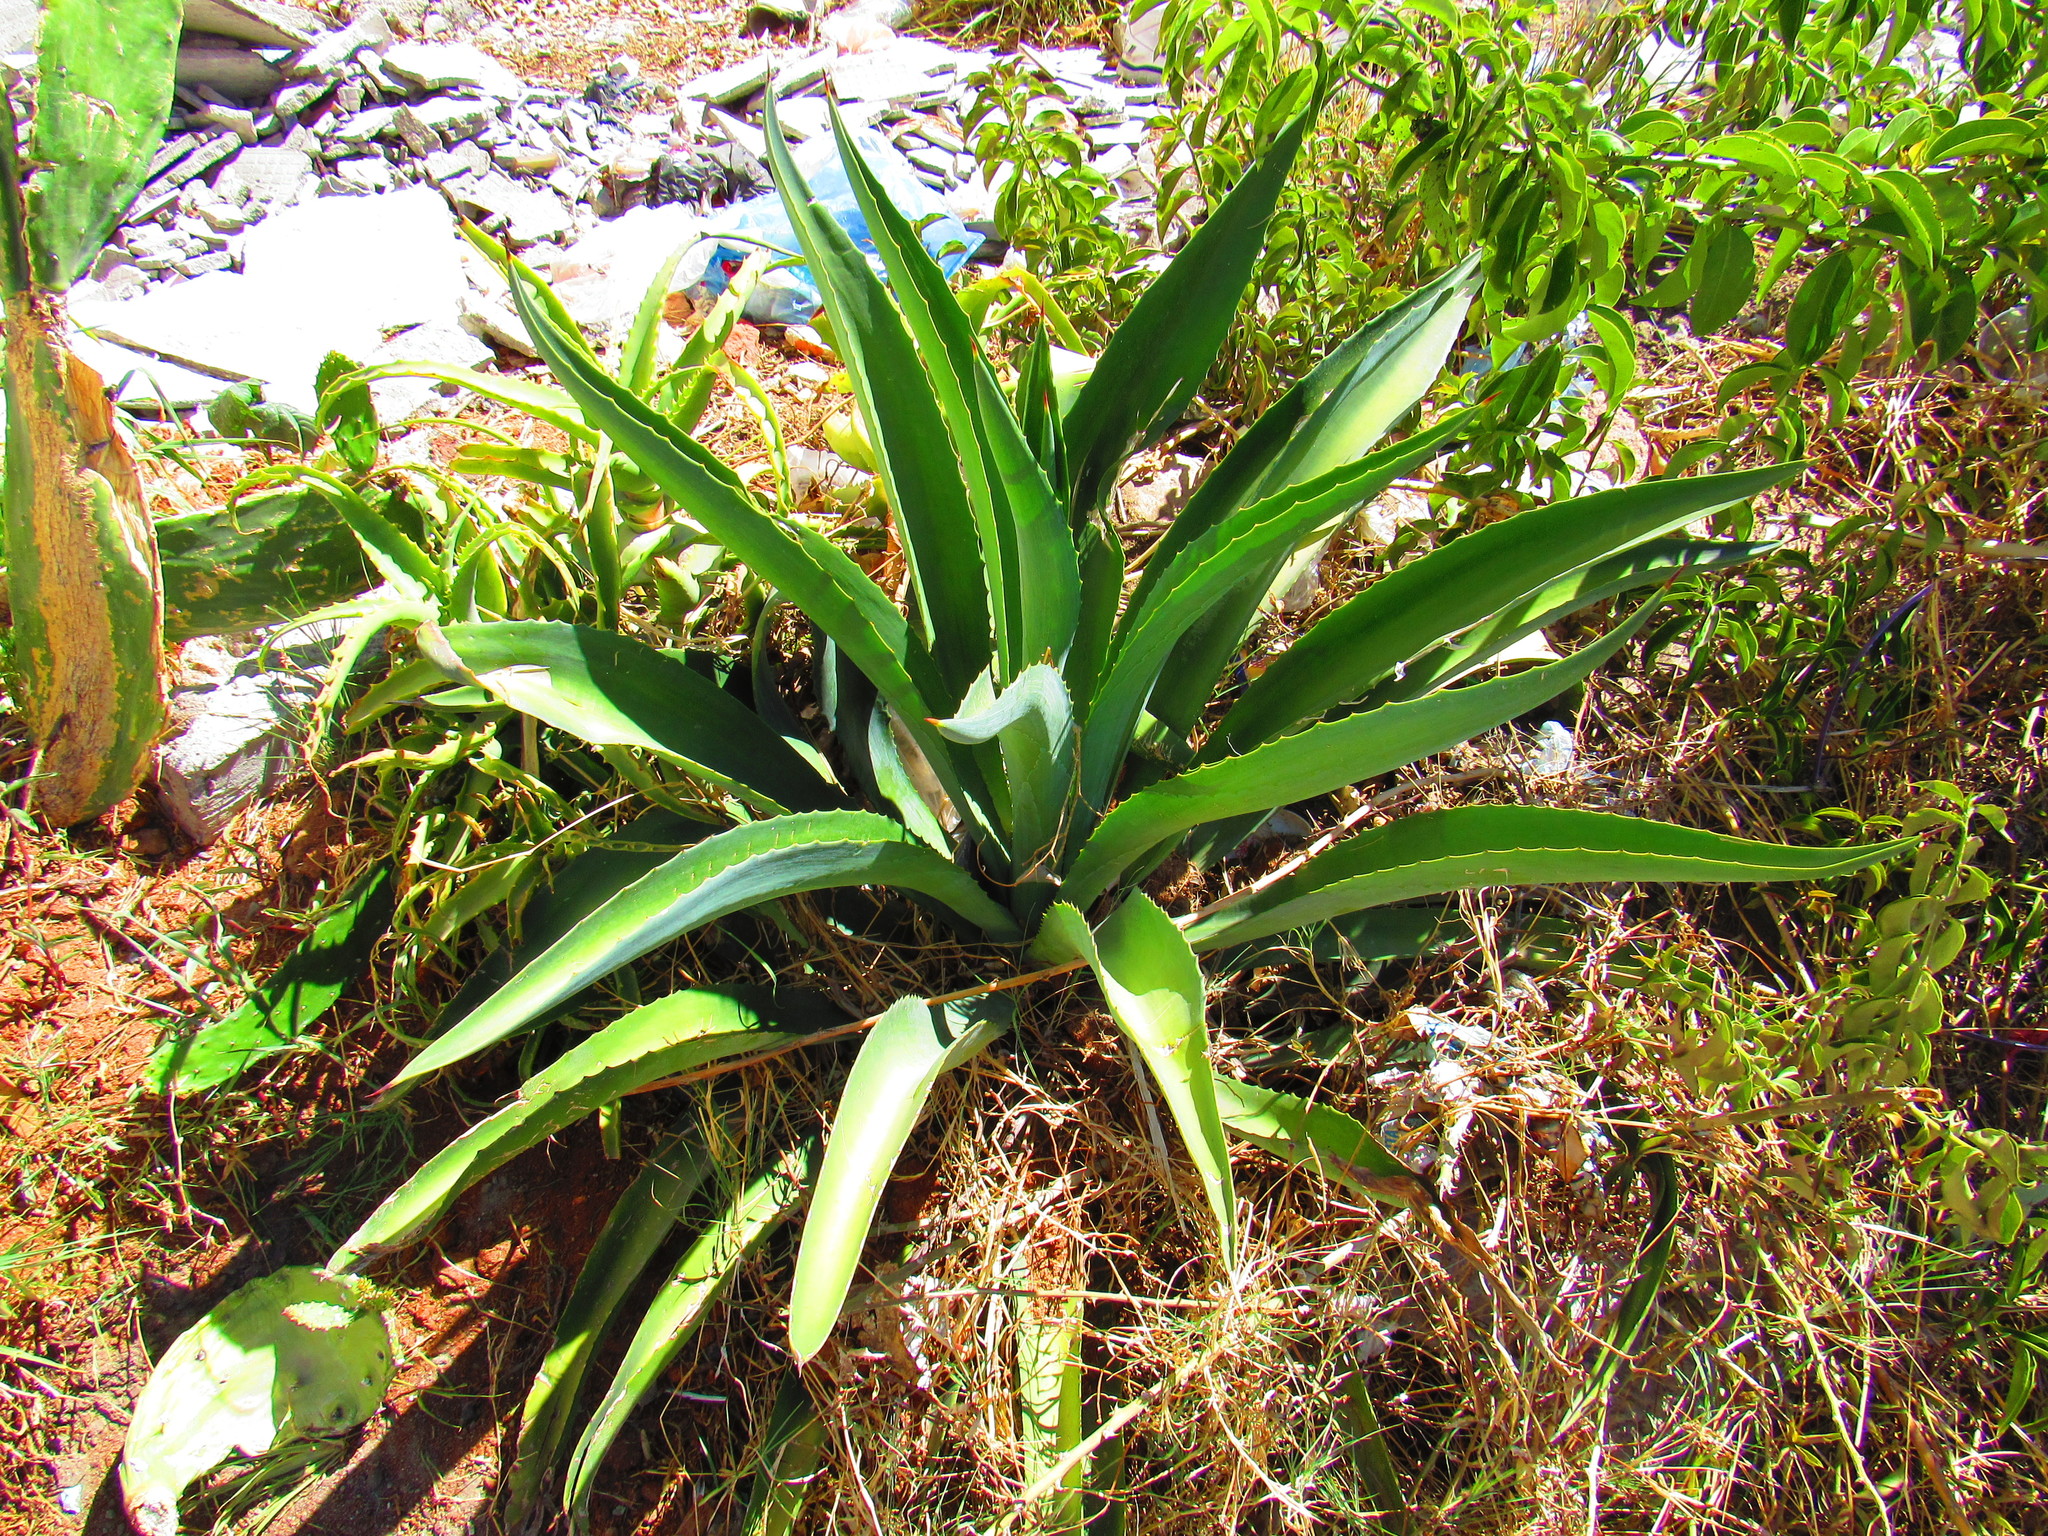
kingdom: Plantae
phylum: Tracheophyta
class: Liliopsida
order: Asparagales
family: Asparagaceae
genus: Agave
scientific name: Agave
